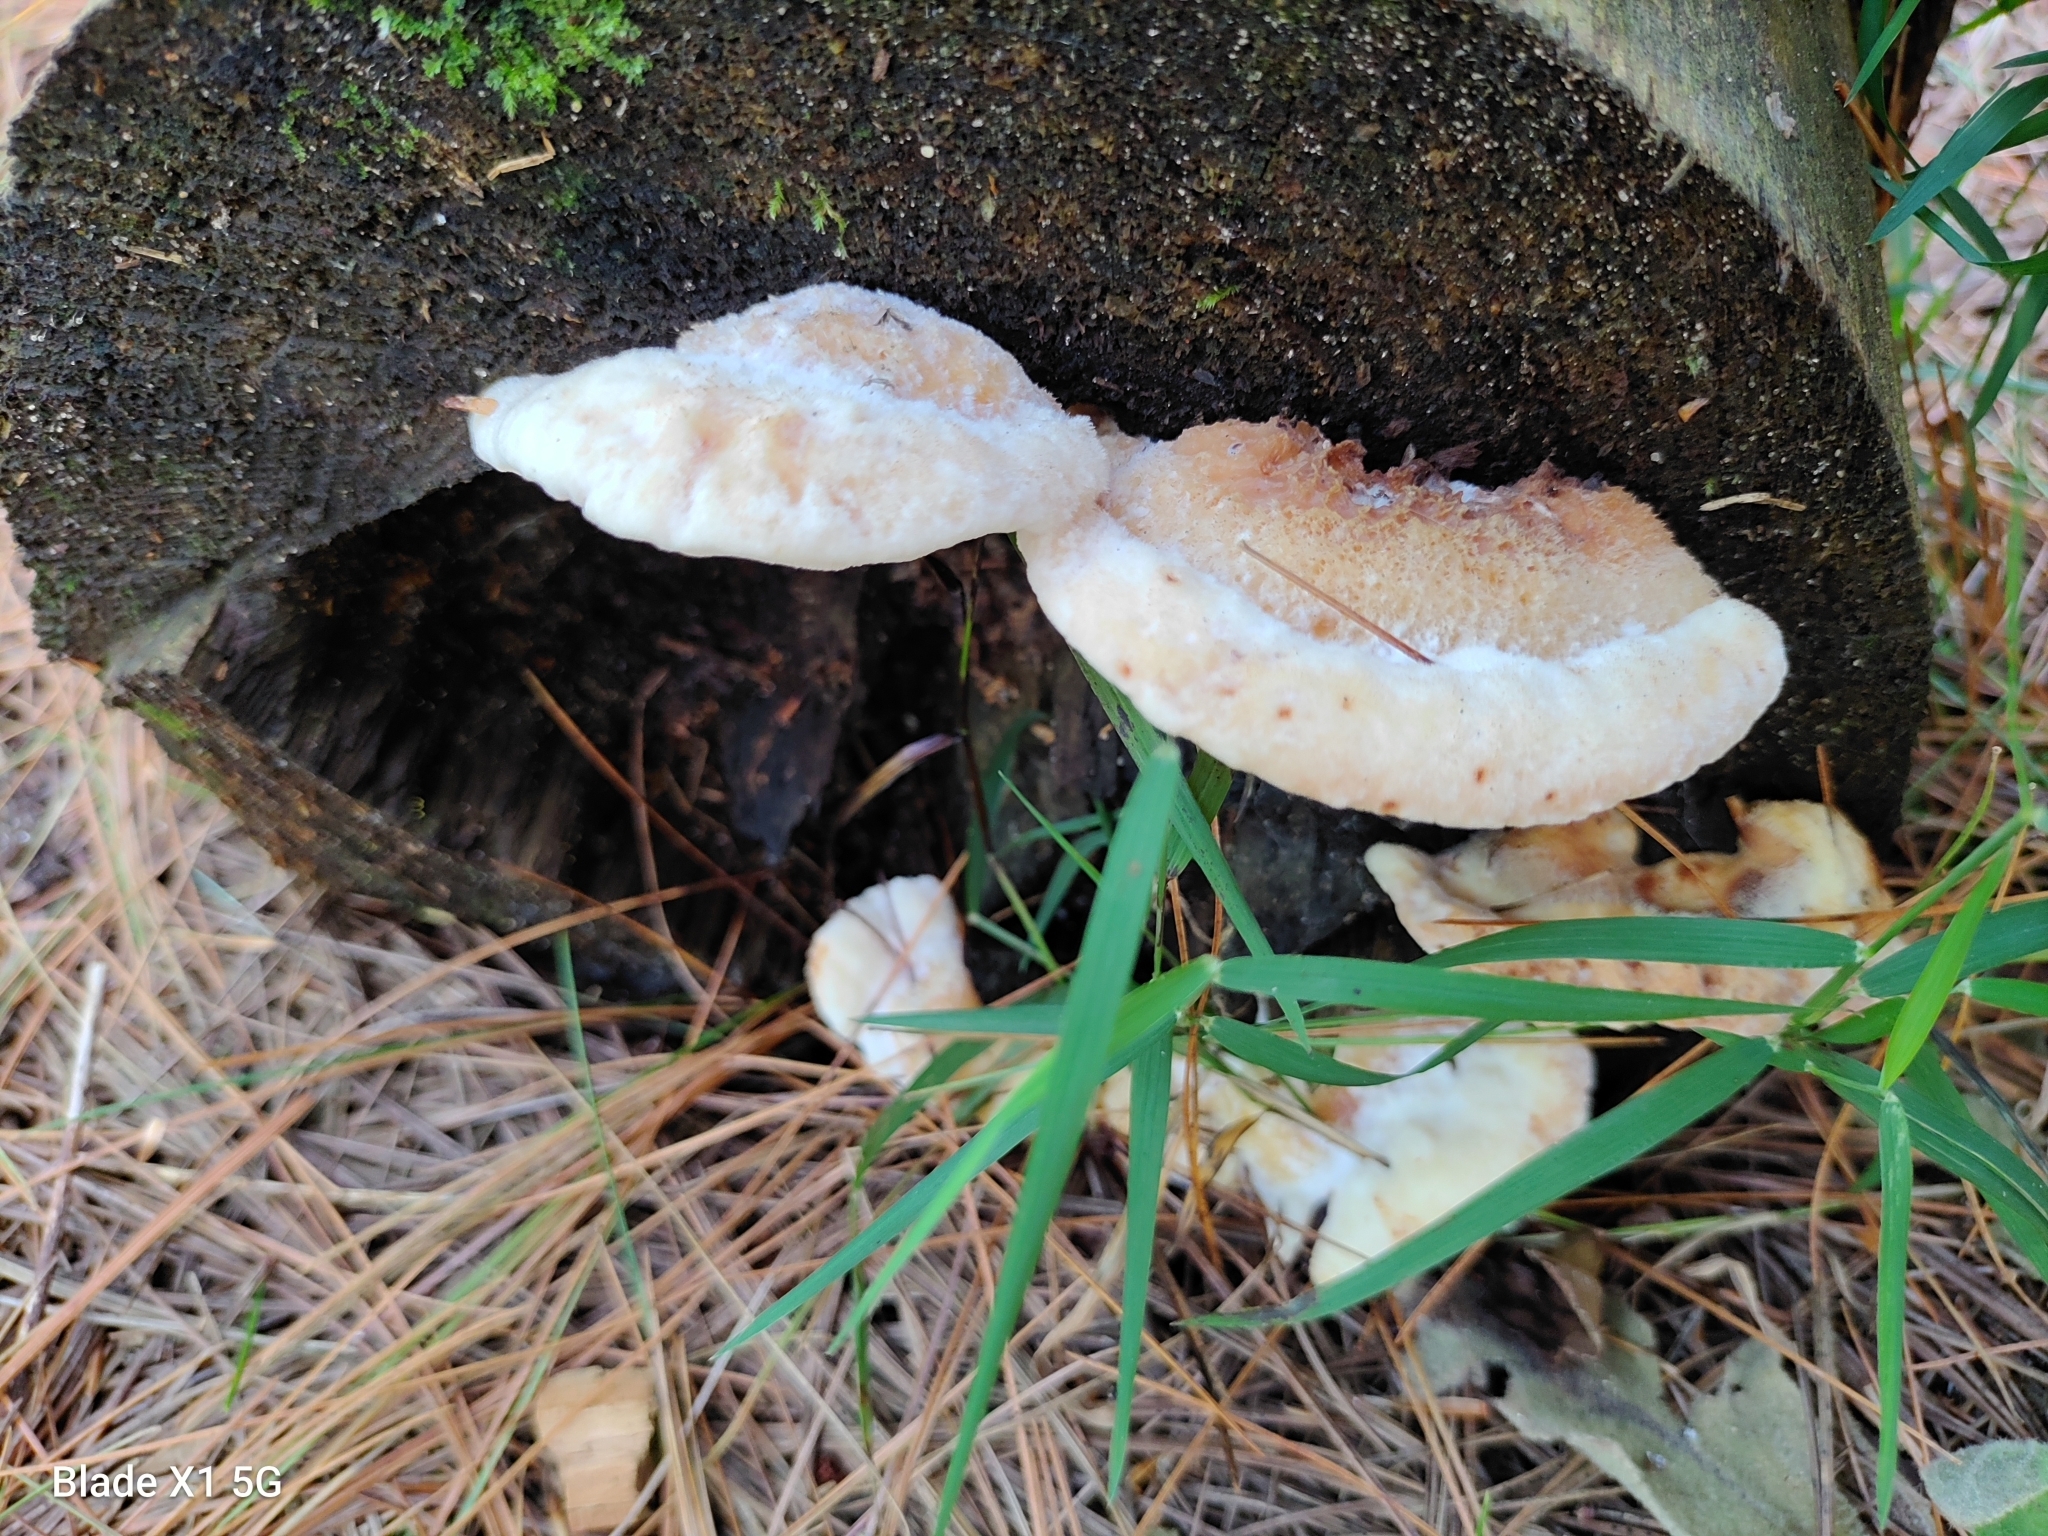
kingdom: Fungi
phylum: Basidiomycota
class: Agaricomycetes
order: Polyporales
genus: Fuscopostia
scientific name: Fuscopostia fragilis
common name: Brown-staining cheese polypore
